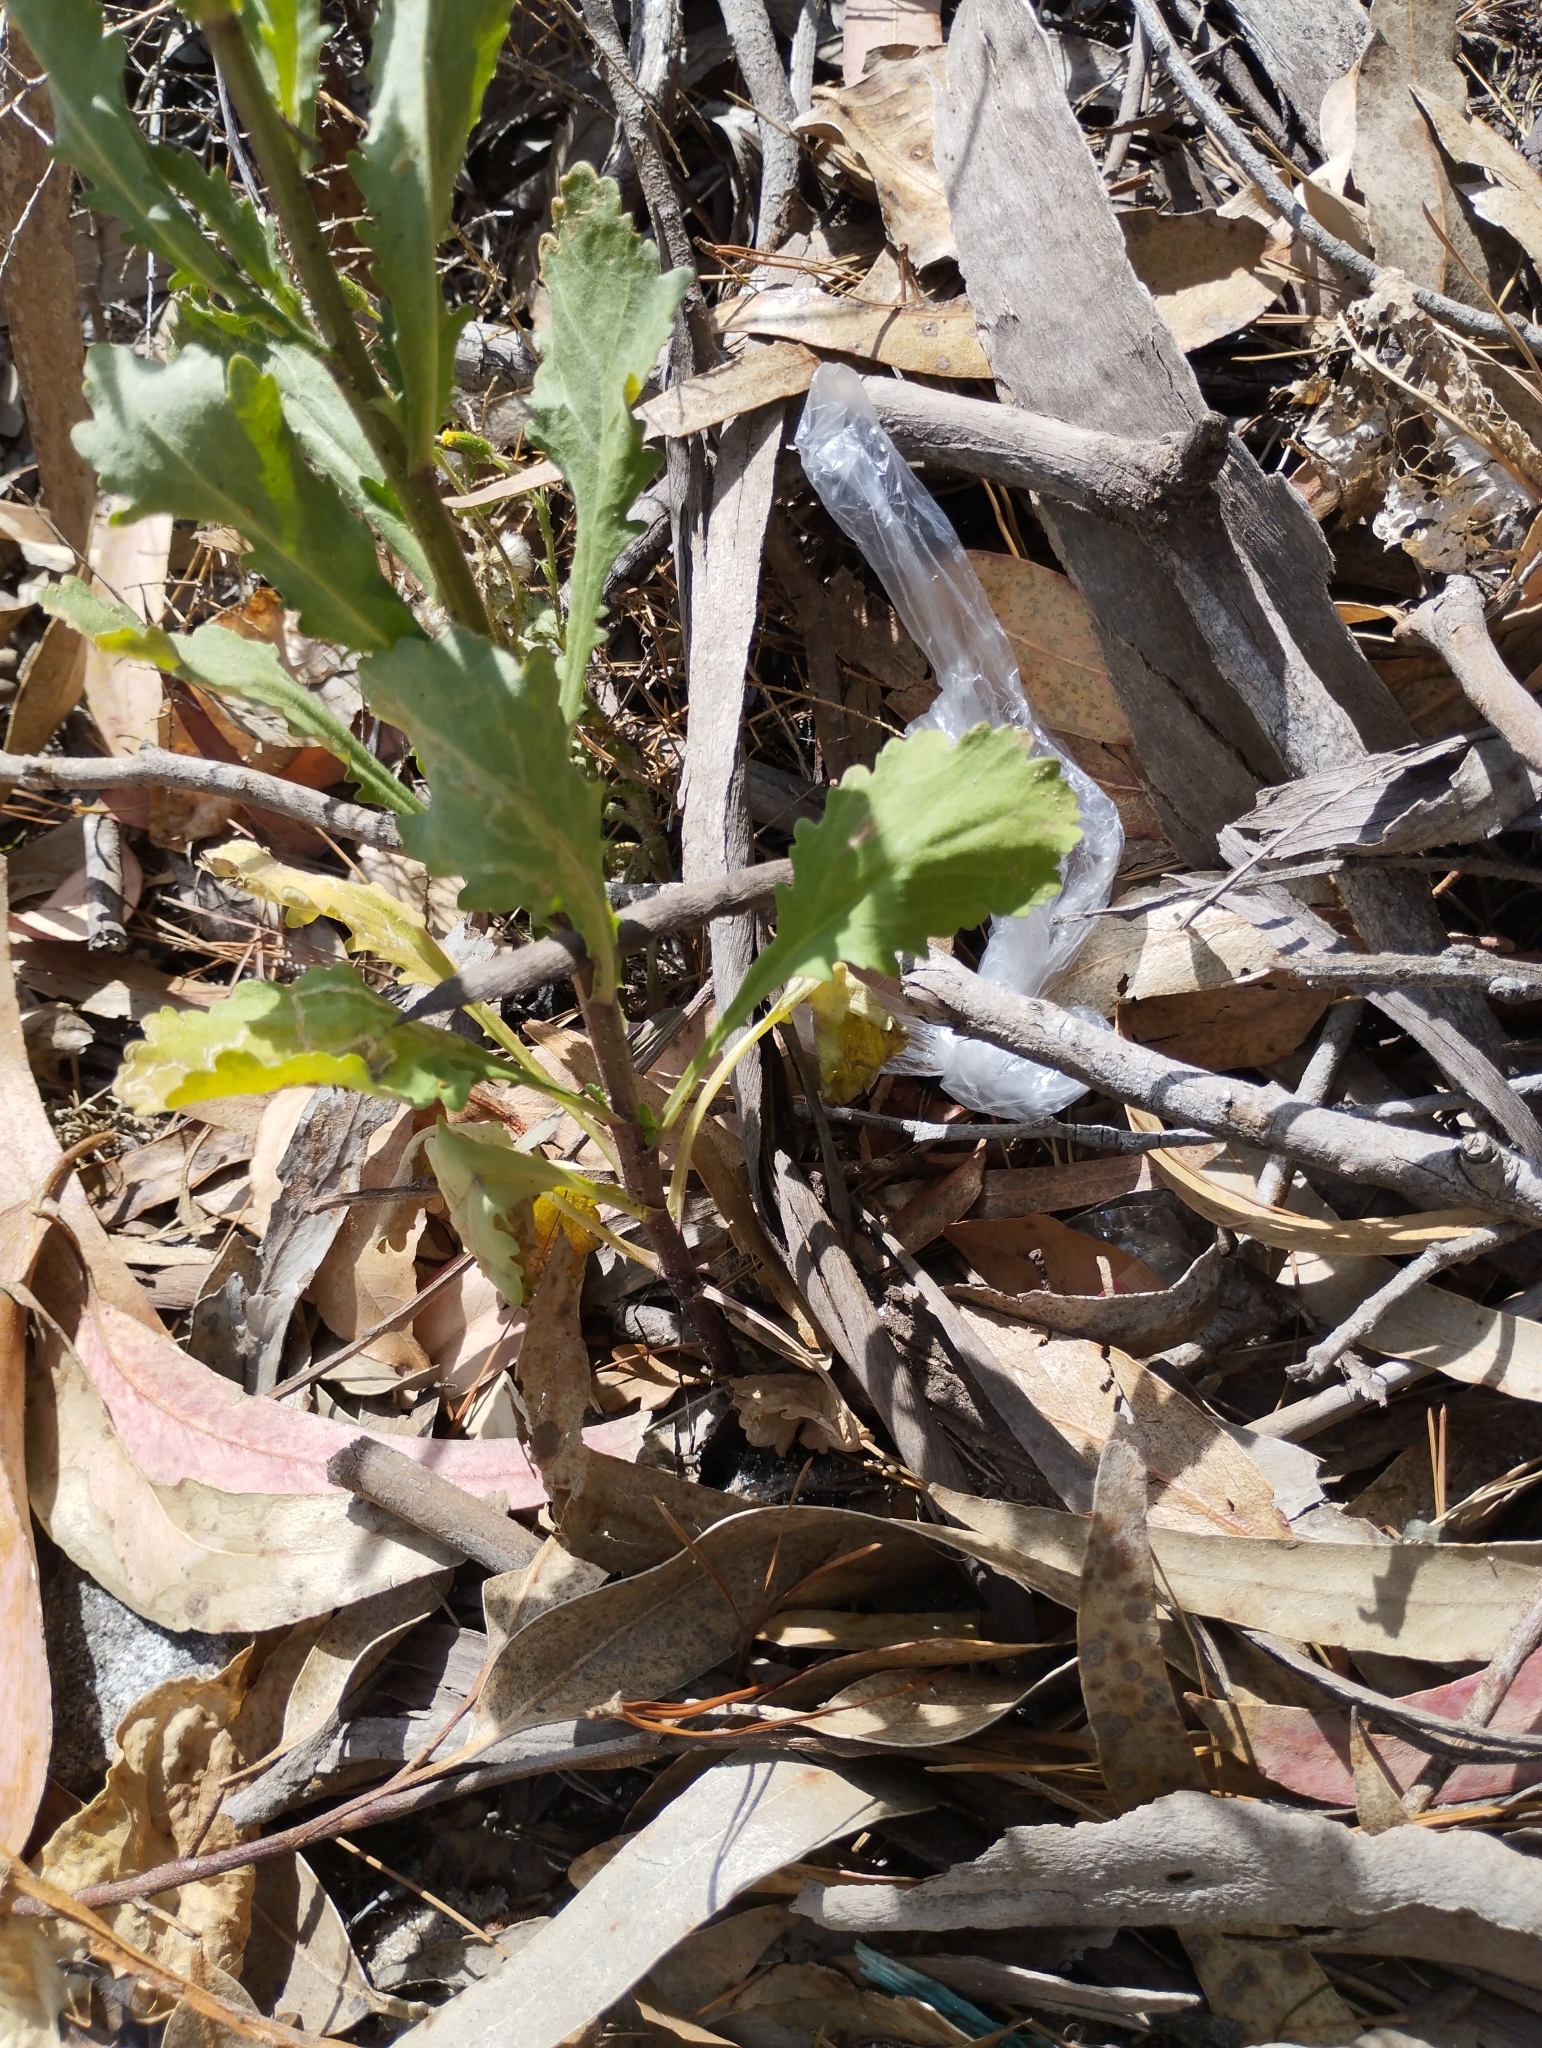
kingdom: Plantae
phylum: Tracheophyta
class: Magnoliopsida
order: Asterales
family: Asteraceae
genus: Leucanthemum
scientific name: Leucanthemum sylvaticum
